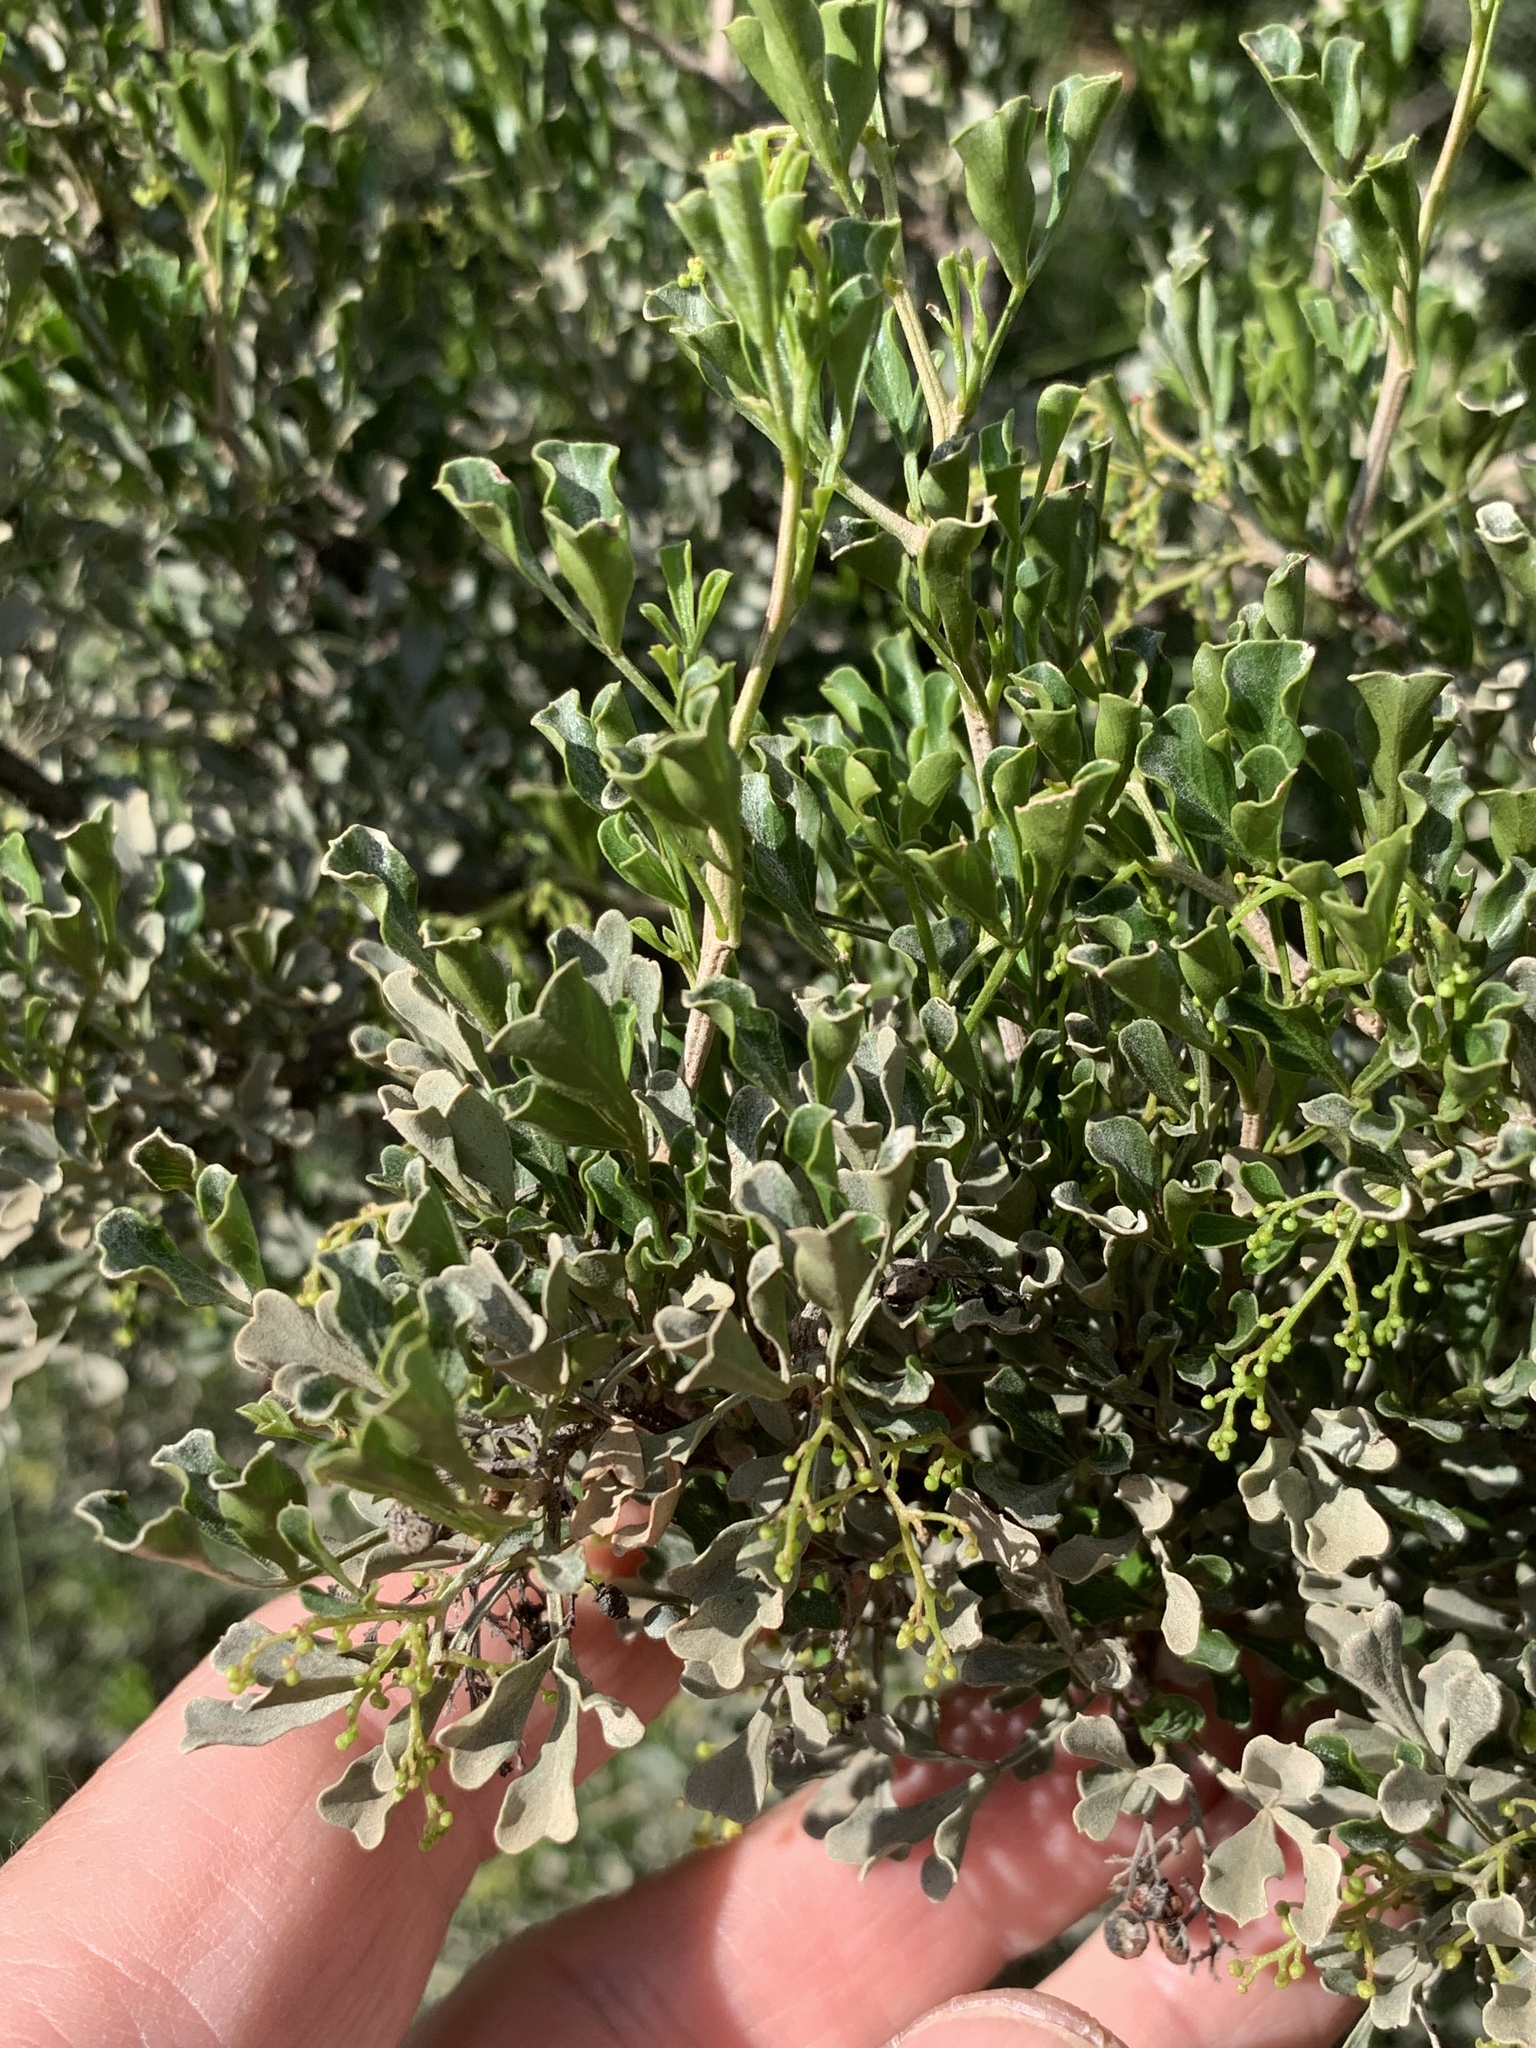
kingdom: Plantae
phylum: Tracheophyta
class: Magnoliopsida
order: Sapindales
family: Anacardiaceae
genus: Searsia
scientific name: Searsia burchellii
